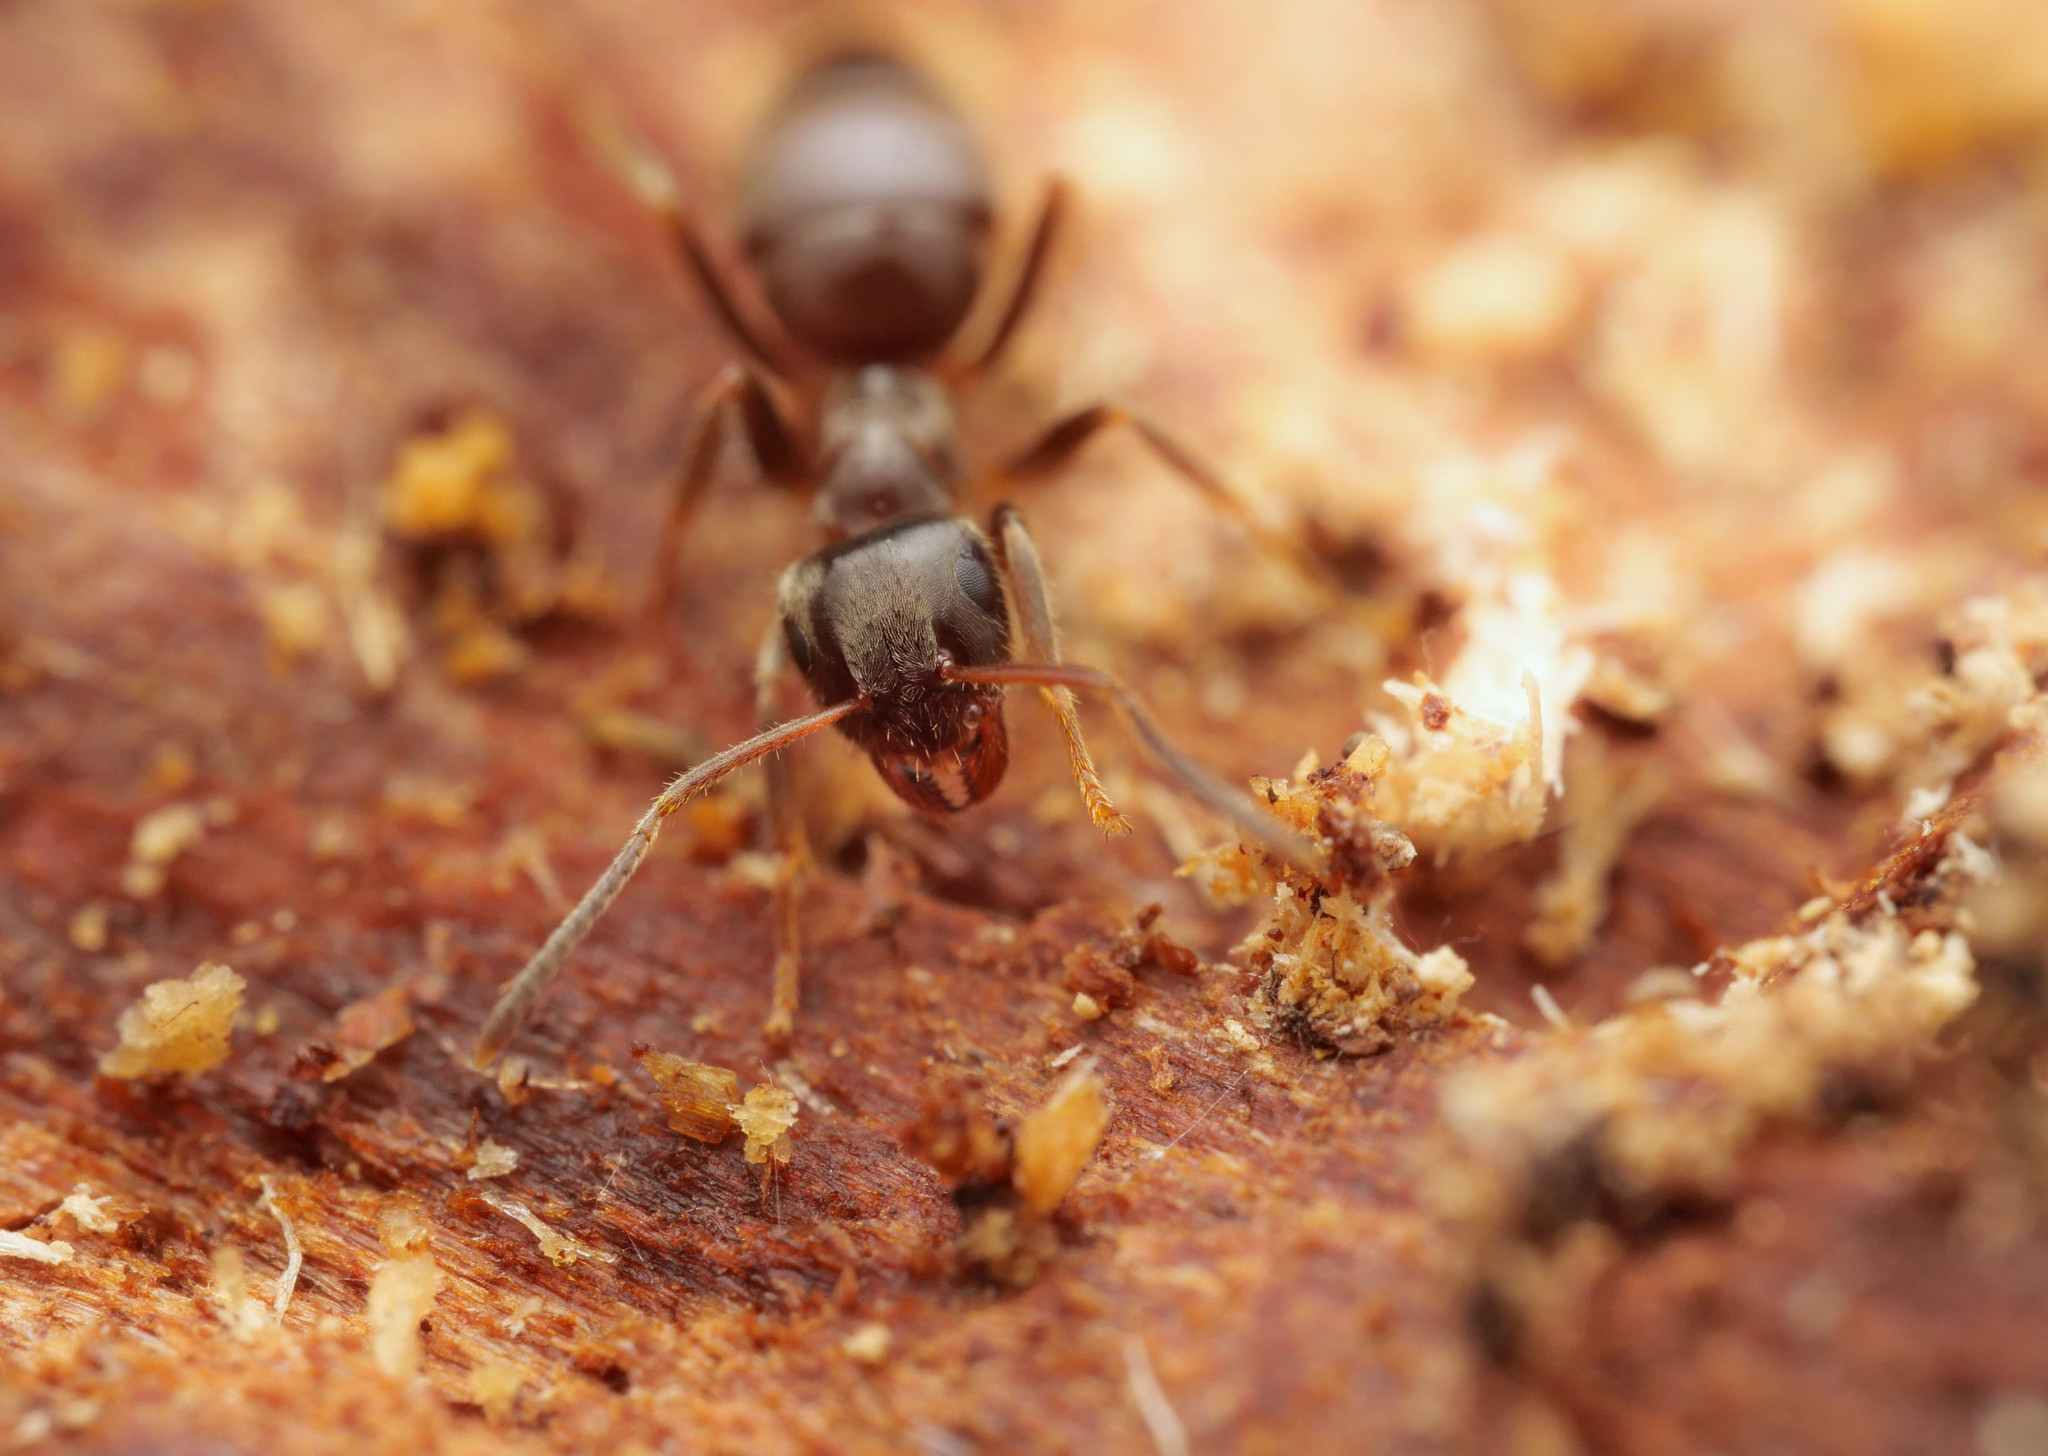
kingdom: Animalia
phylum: Arthropoda
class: Insecta
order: Hymenoptera
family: Formicidae
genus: Lasius
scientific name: Lasius platythorax
